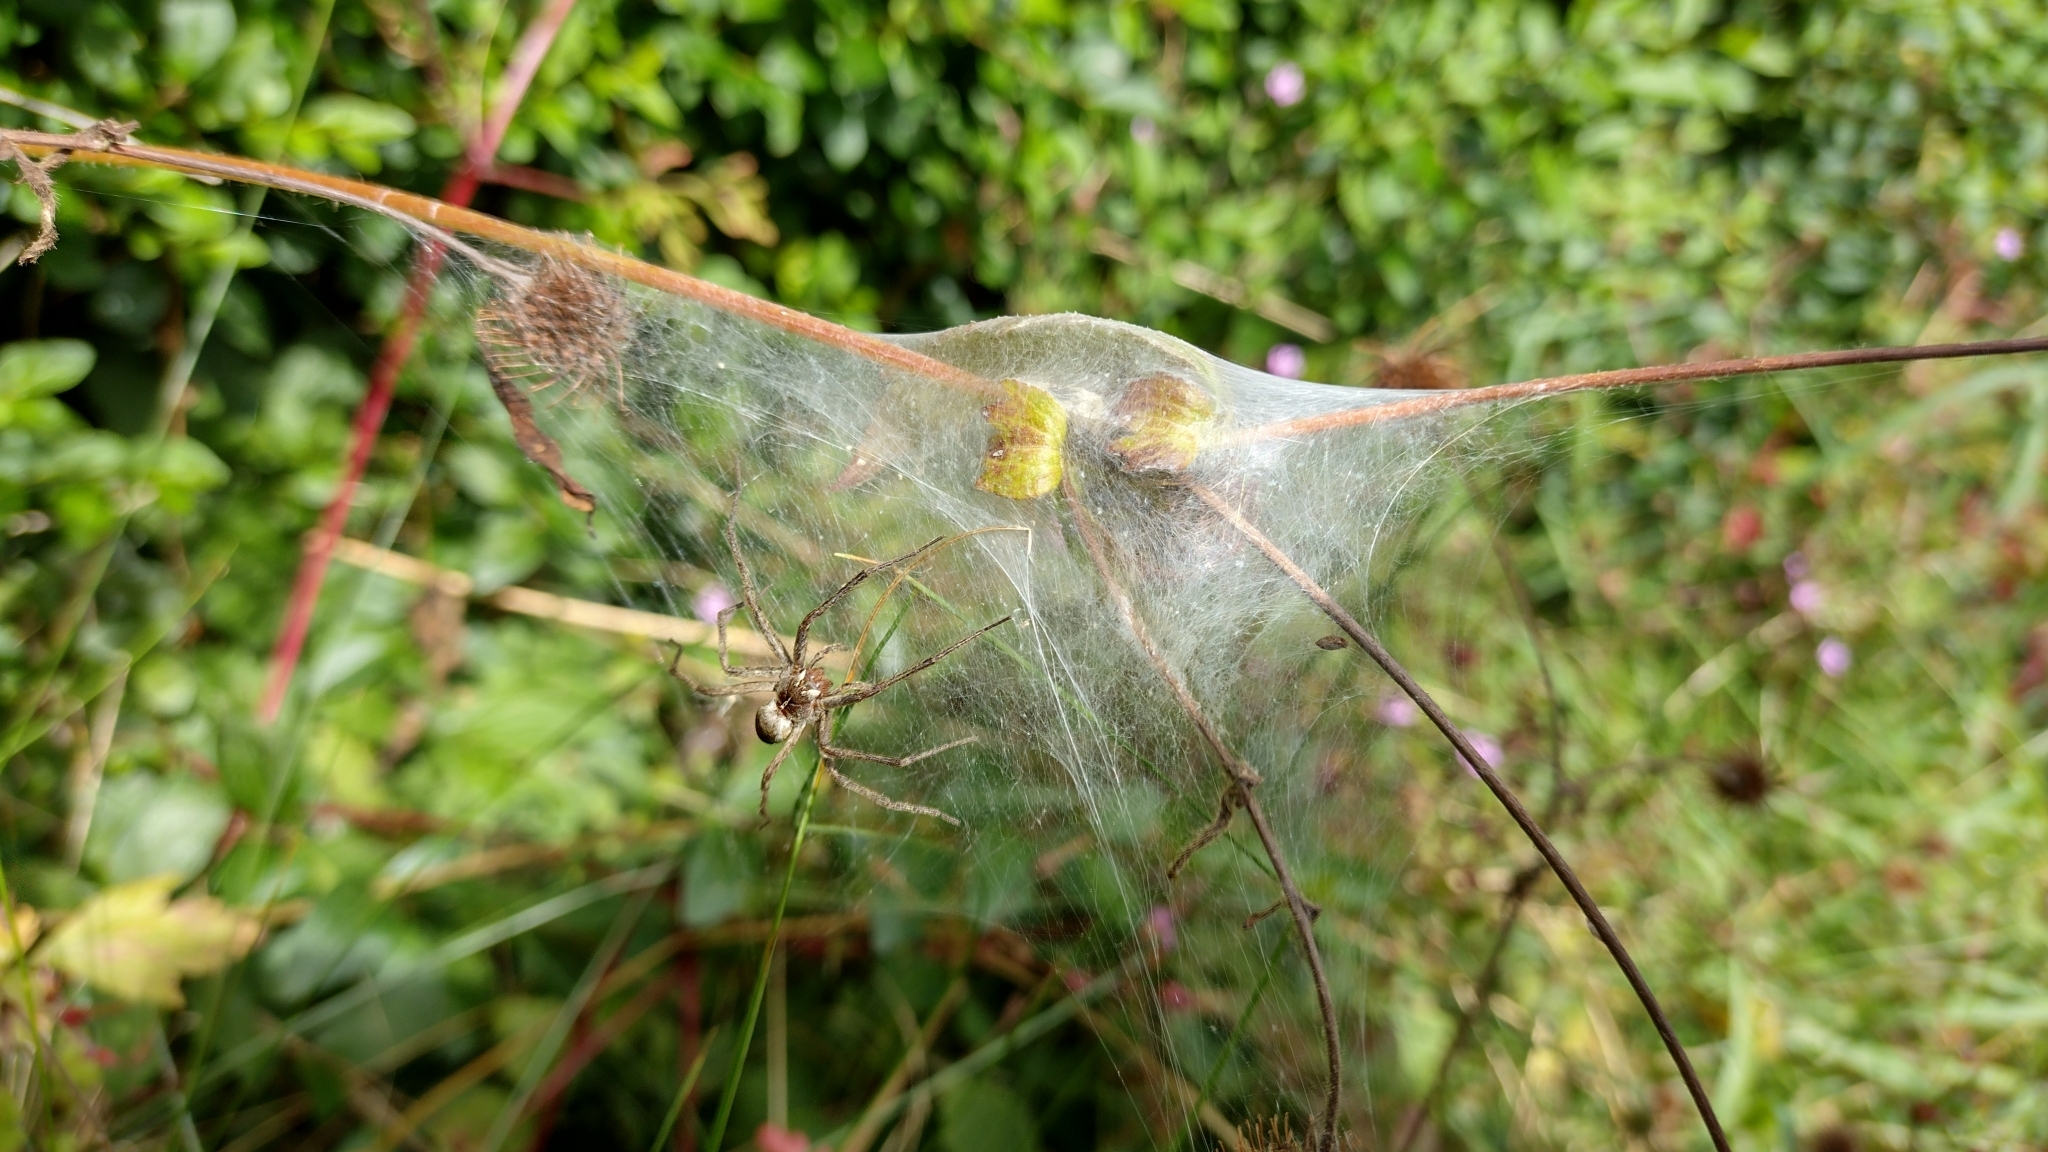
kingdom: Animalia
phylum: Arthropoda
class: Arachnida
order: Araneae
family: Pisauridae
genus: Pisaura
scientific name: Pisaura mirabilis
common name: Tent spider
